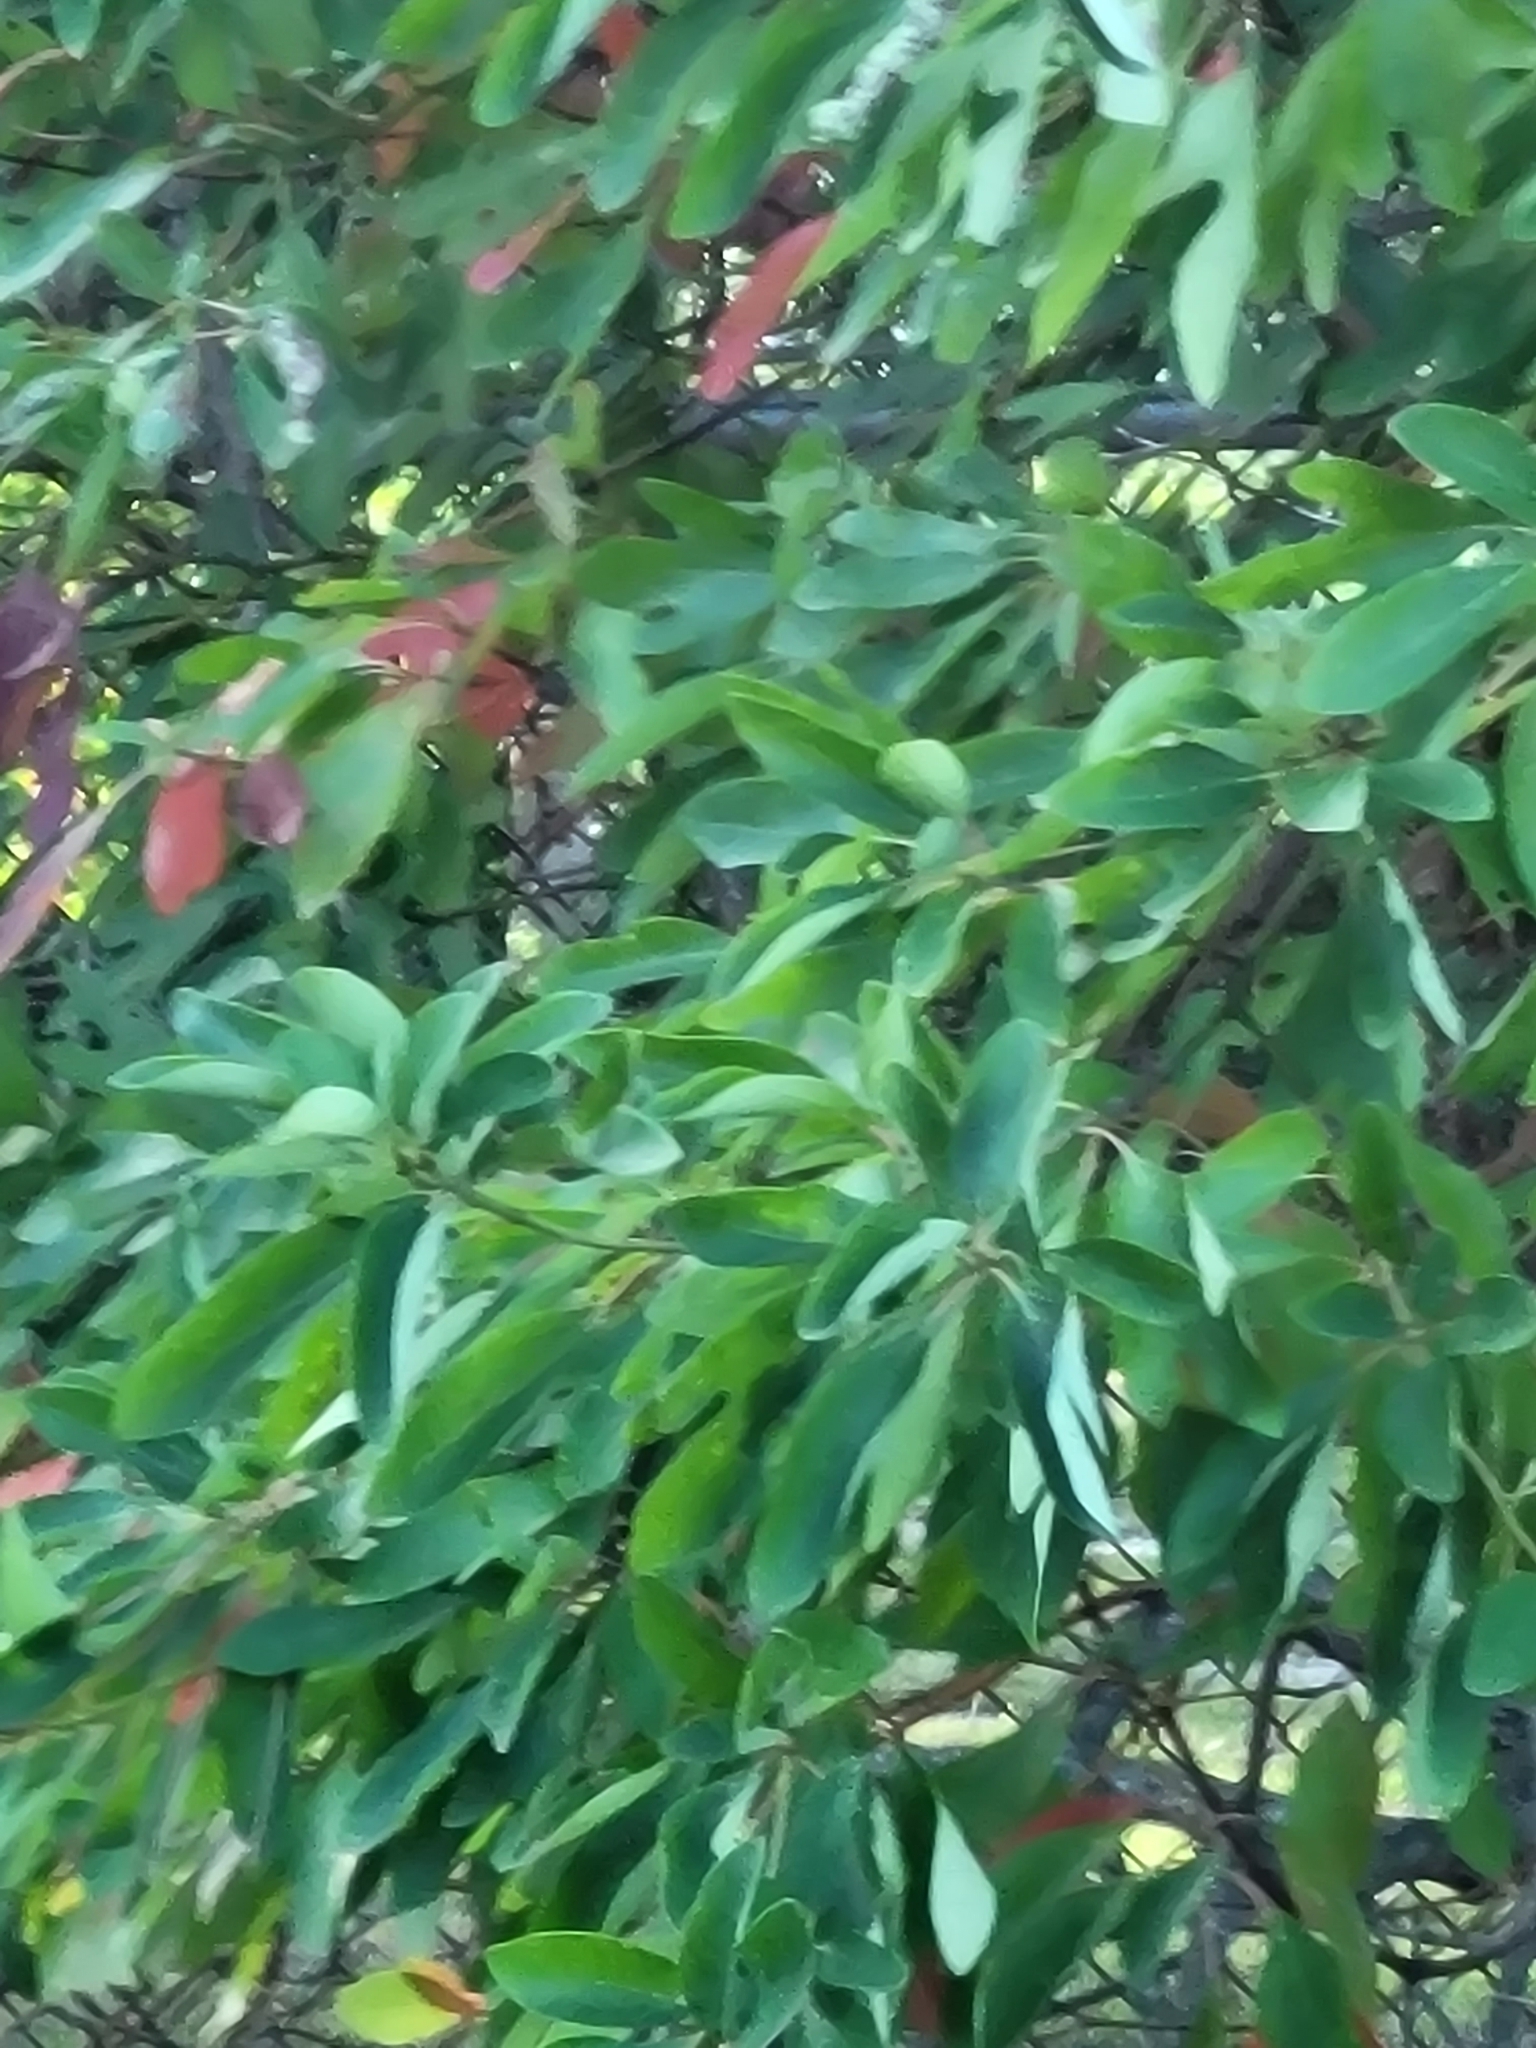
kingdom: Plantae
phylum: Tracheophyta
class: Magnoliopsida
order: Laurales
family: Lauraceae
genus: Sassafras
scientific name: Sassafras albidum
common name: Sassafras
